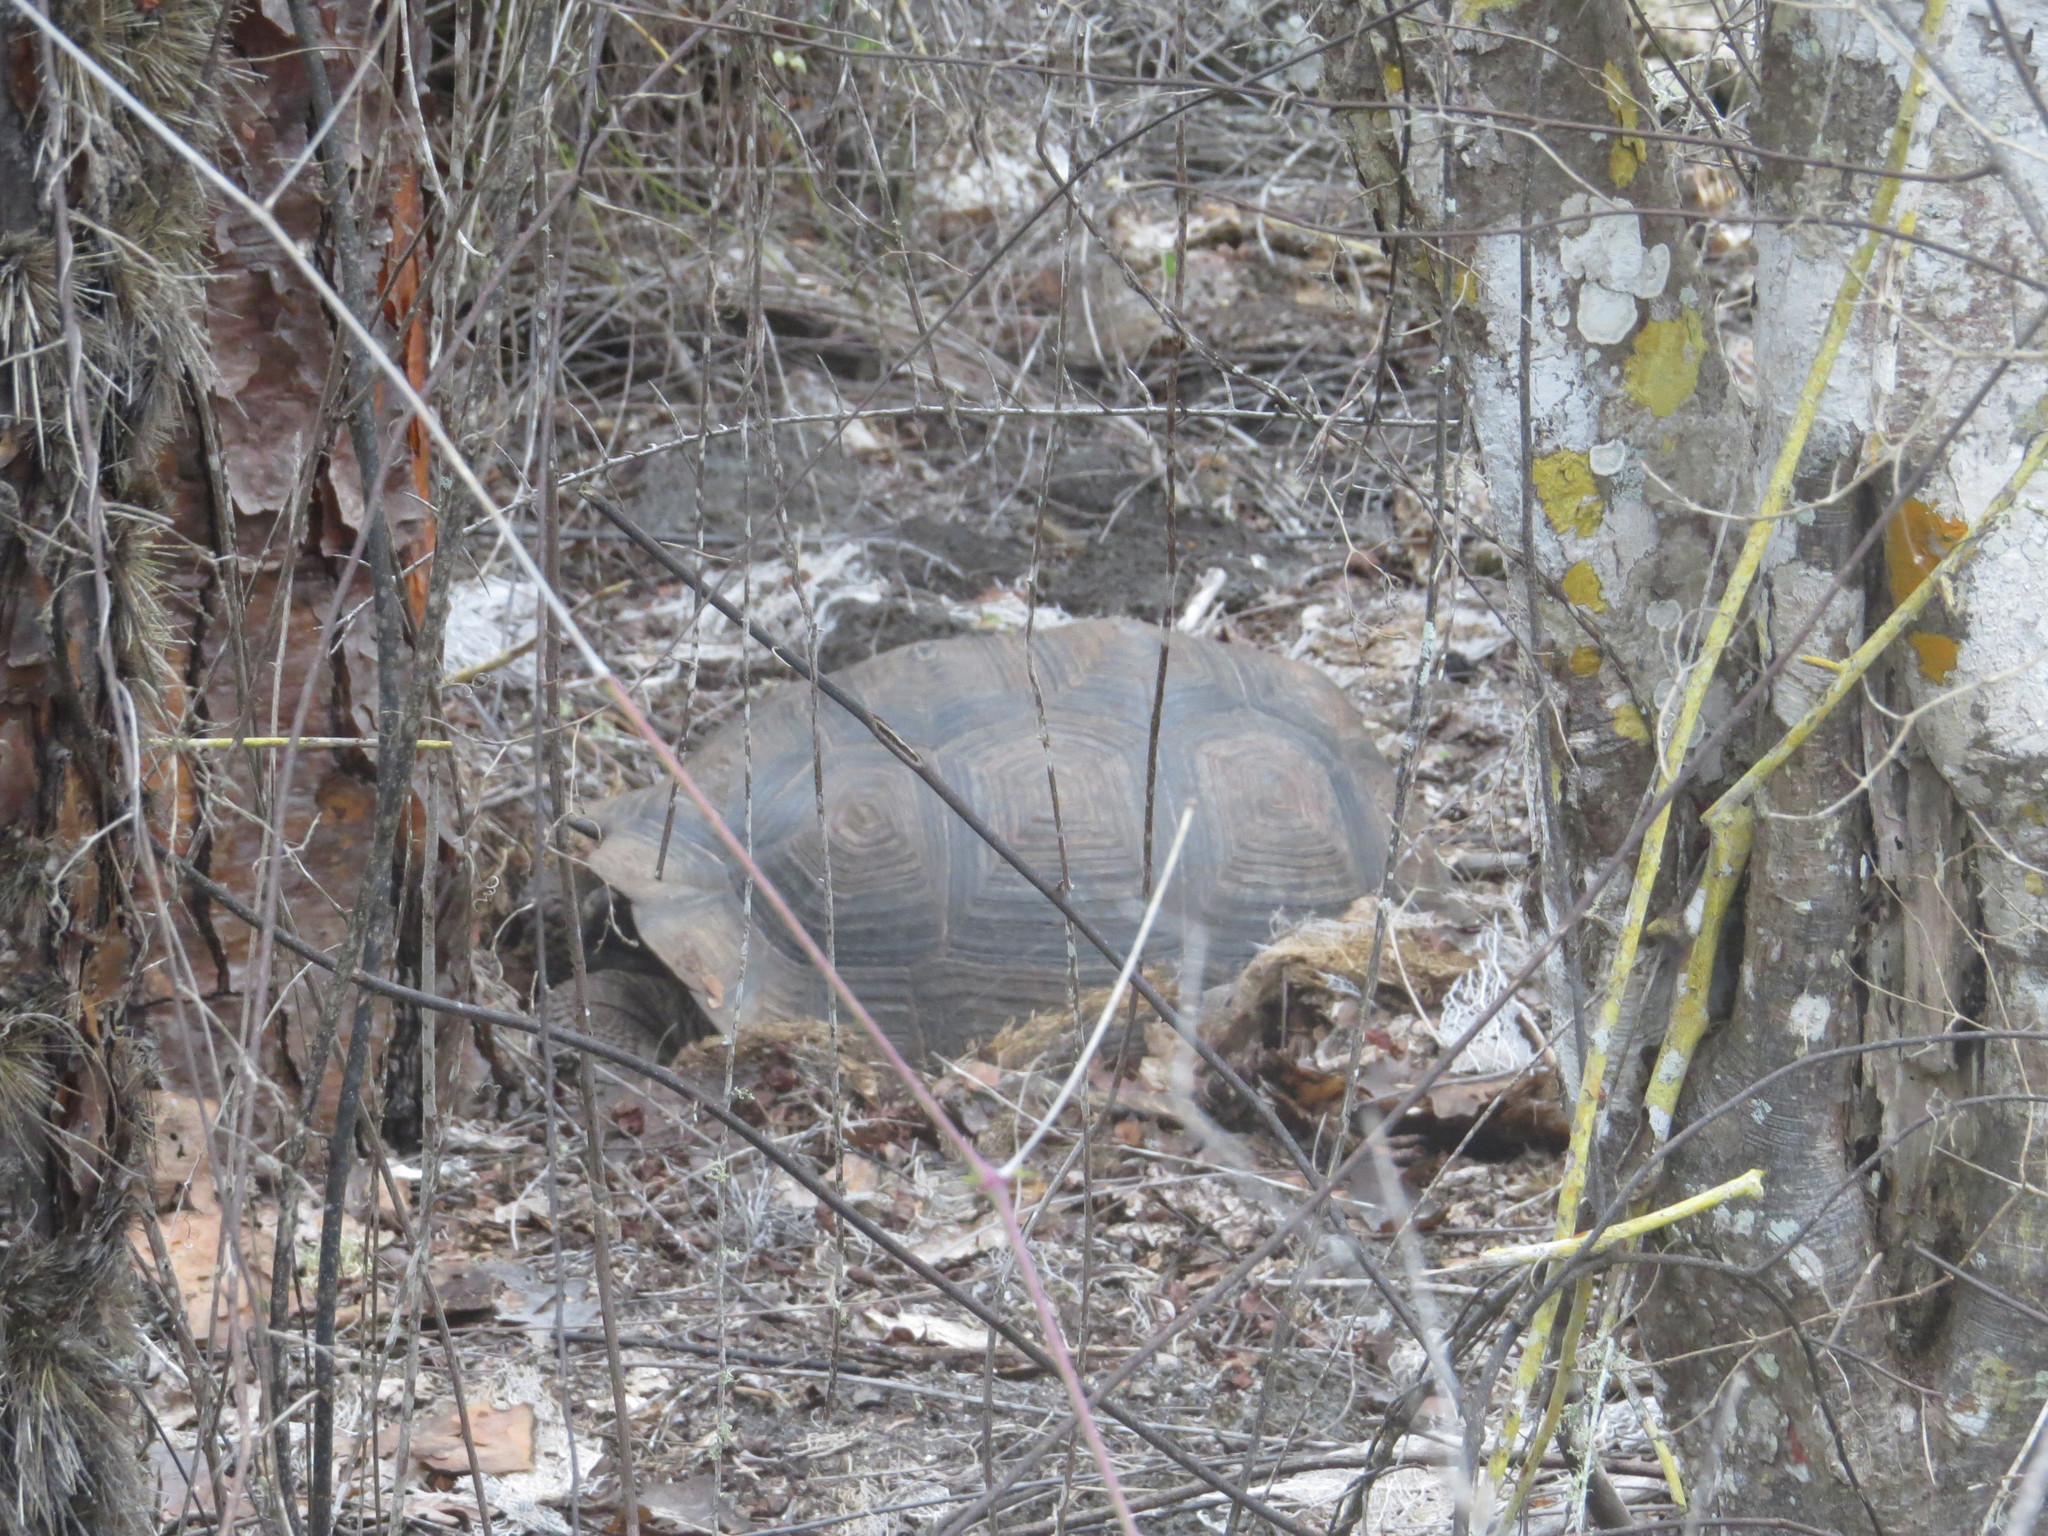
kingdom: Animalia
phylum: Chordata
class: Testudines
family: Testudinidae
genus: Chelonoidis
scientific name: Chelonoidis porteri
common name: Indefatigable island giant tortoise
